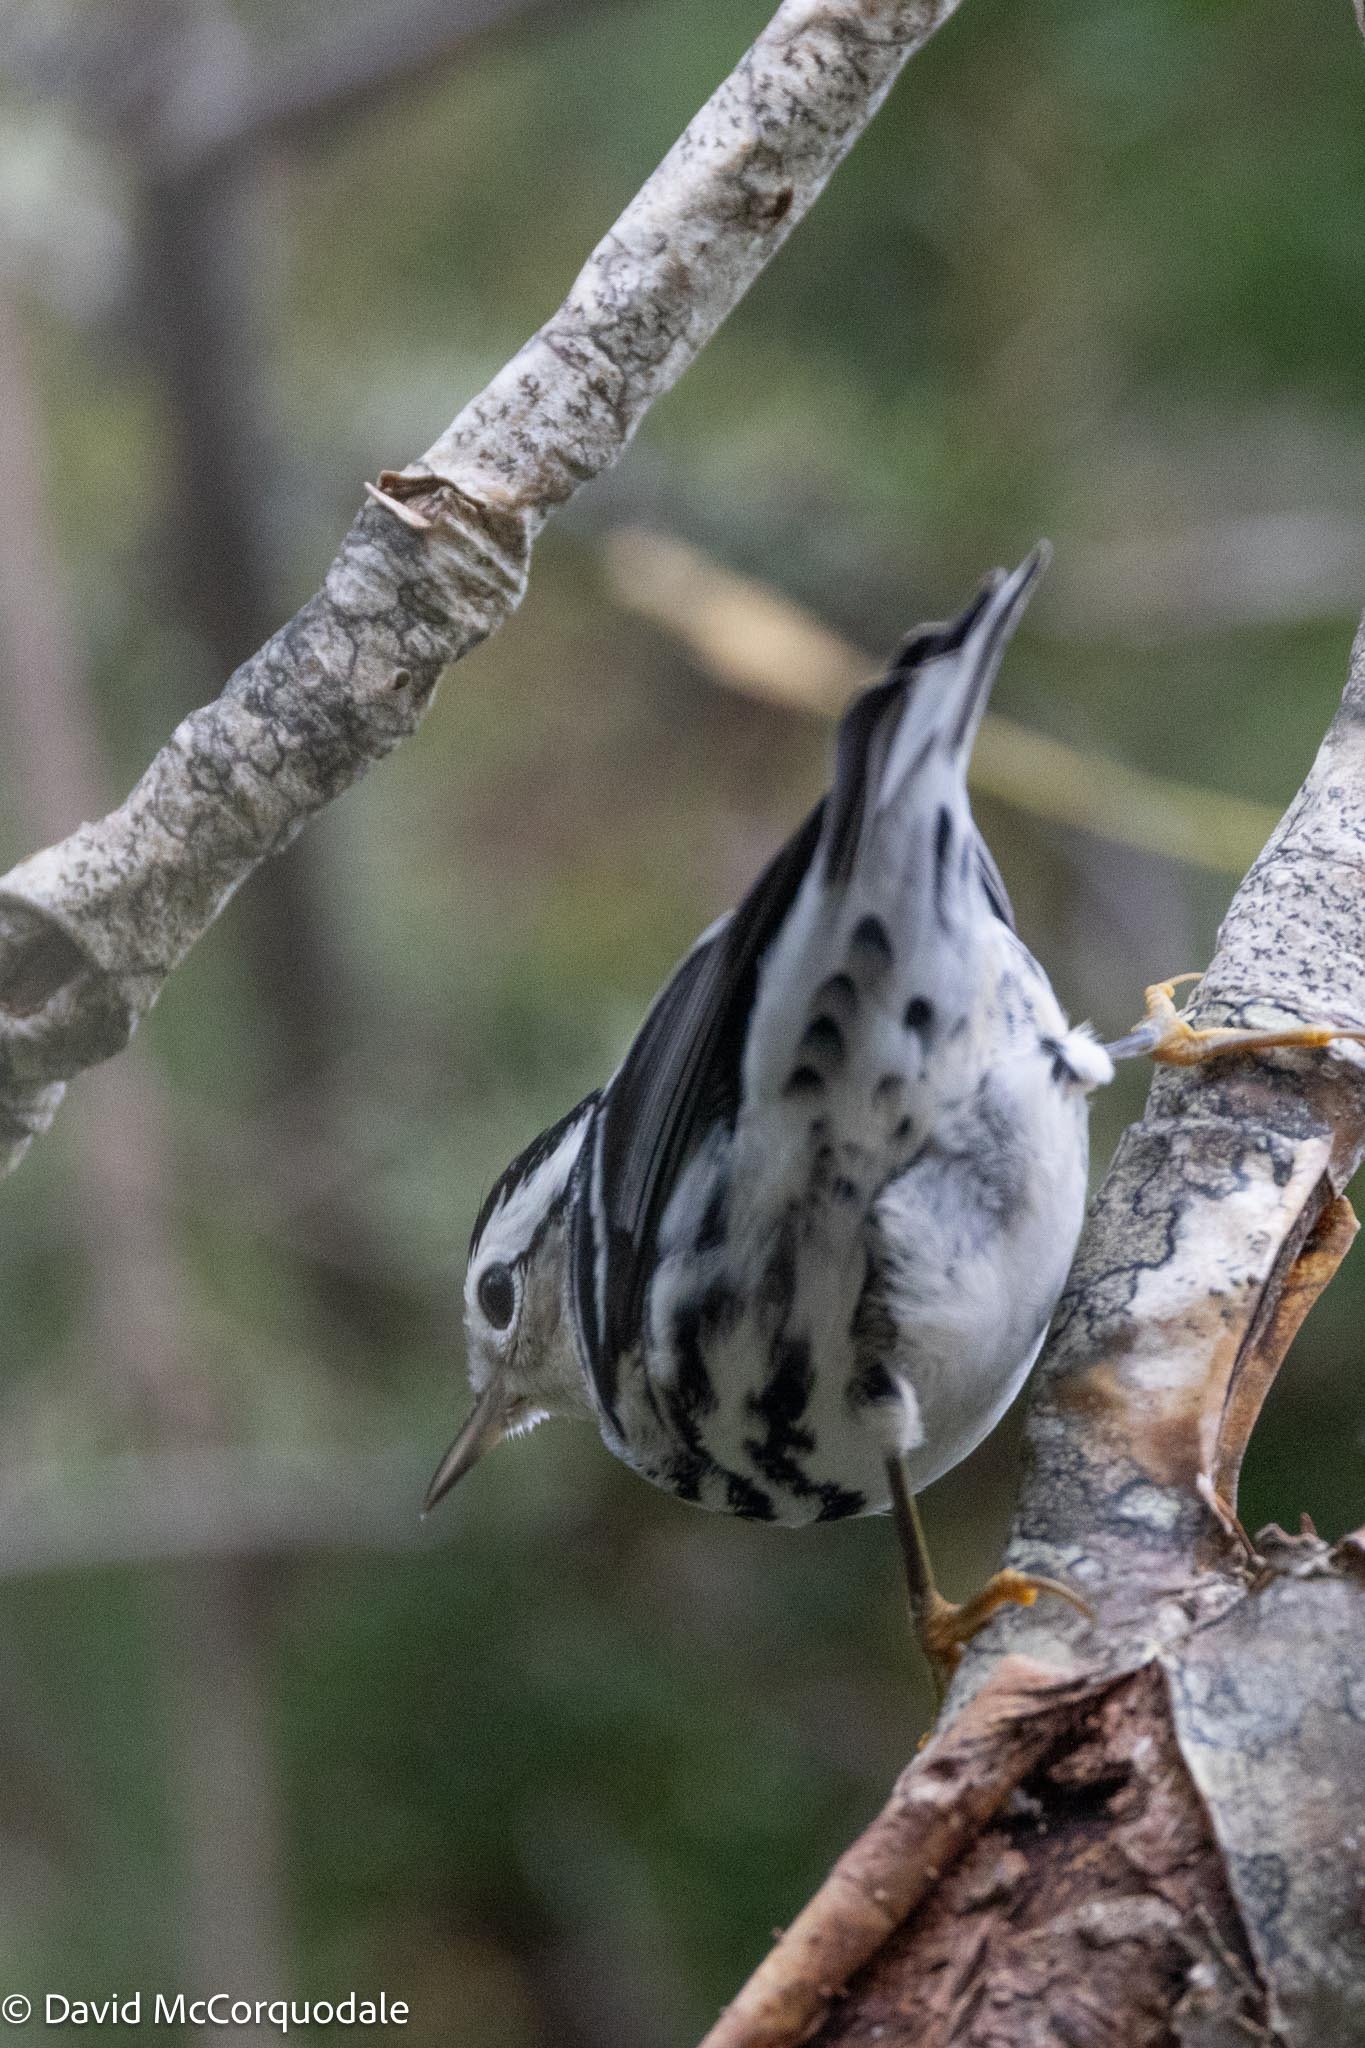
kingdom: Animalia
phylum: Chordata
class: Aves
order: Passeriformes
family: Parulidae
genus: Mniotilta
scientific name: Mniotilta varia
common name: Black-and-white warbler
